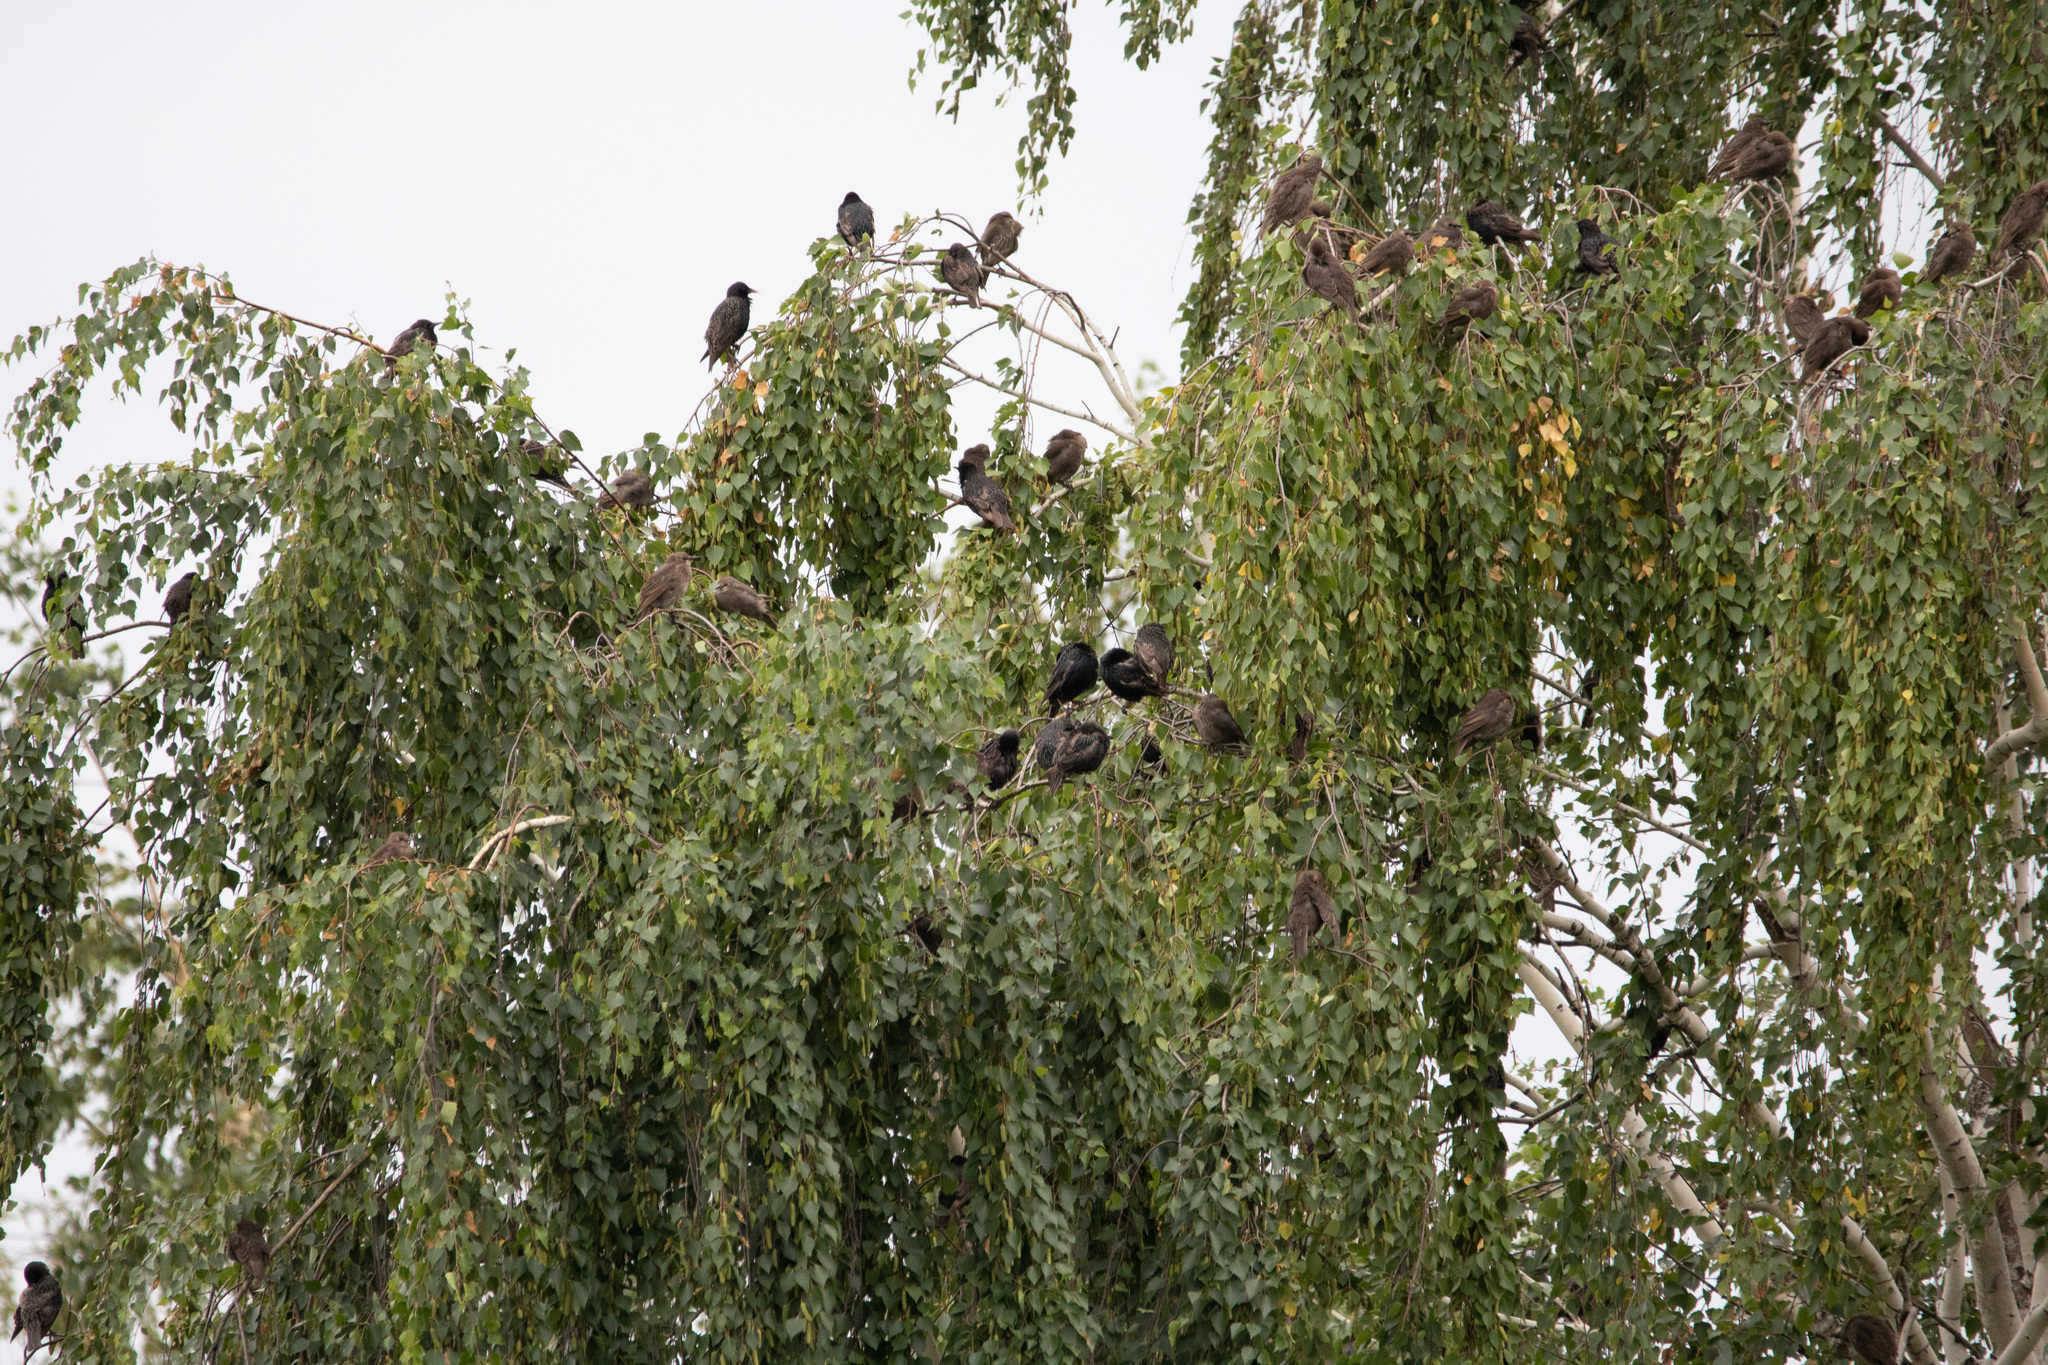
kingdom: Animalia
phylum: Chordata
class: Aves
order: Passeriformes
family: Sturnidae
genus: Sturnus
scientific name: Sturnus vulgaris
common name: Common starling
